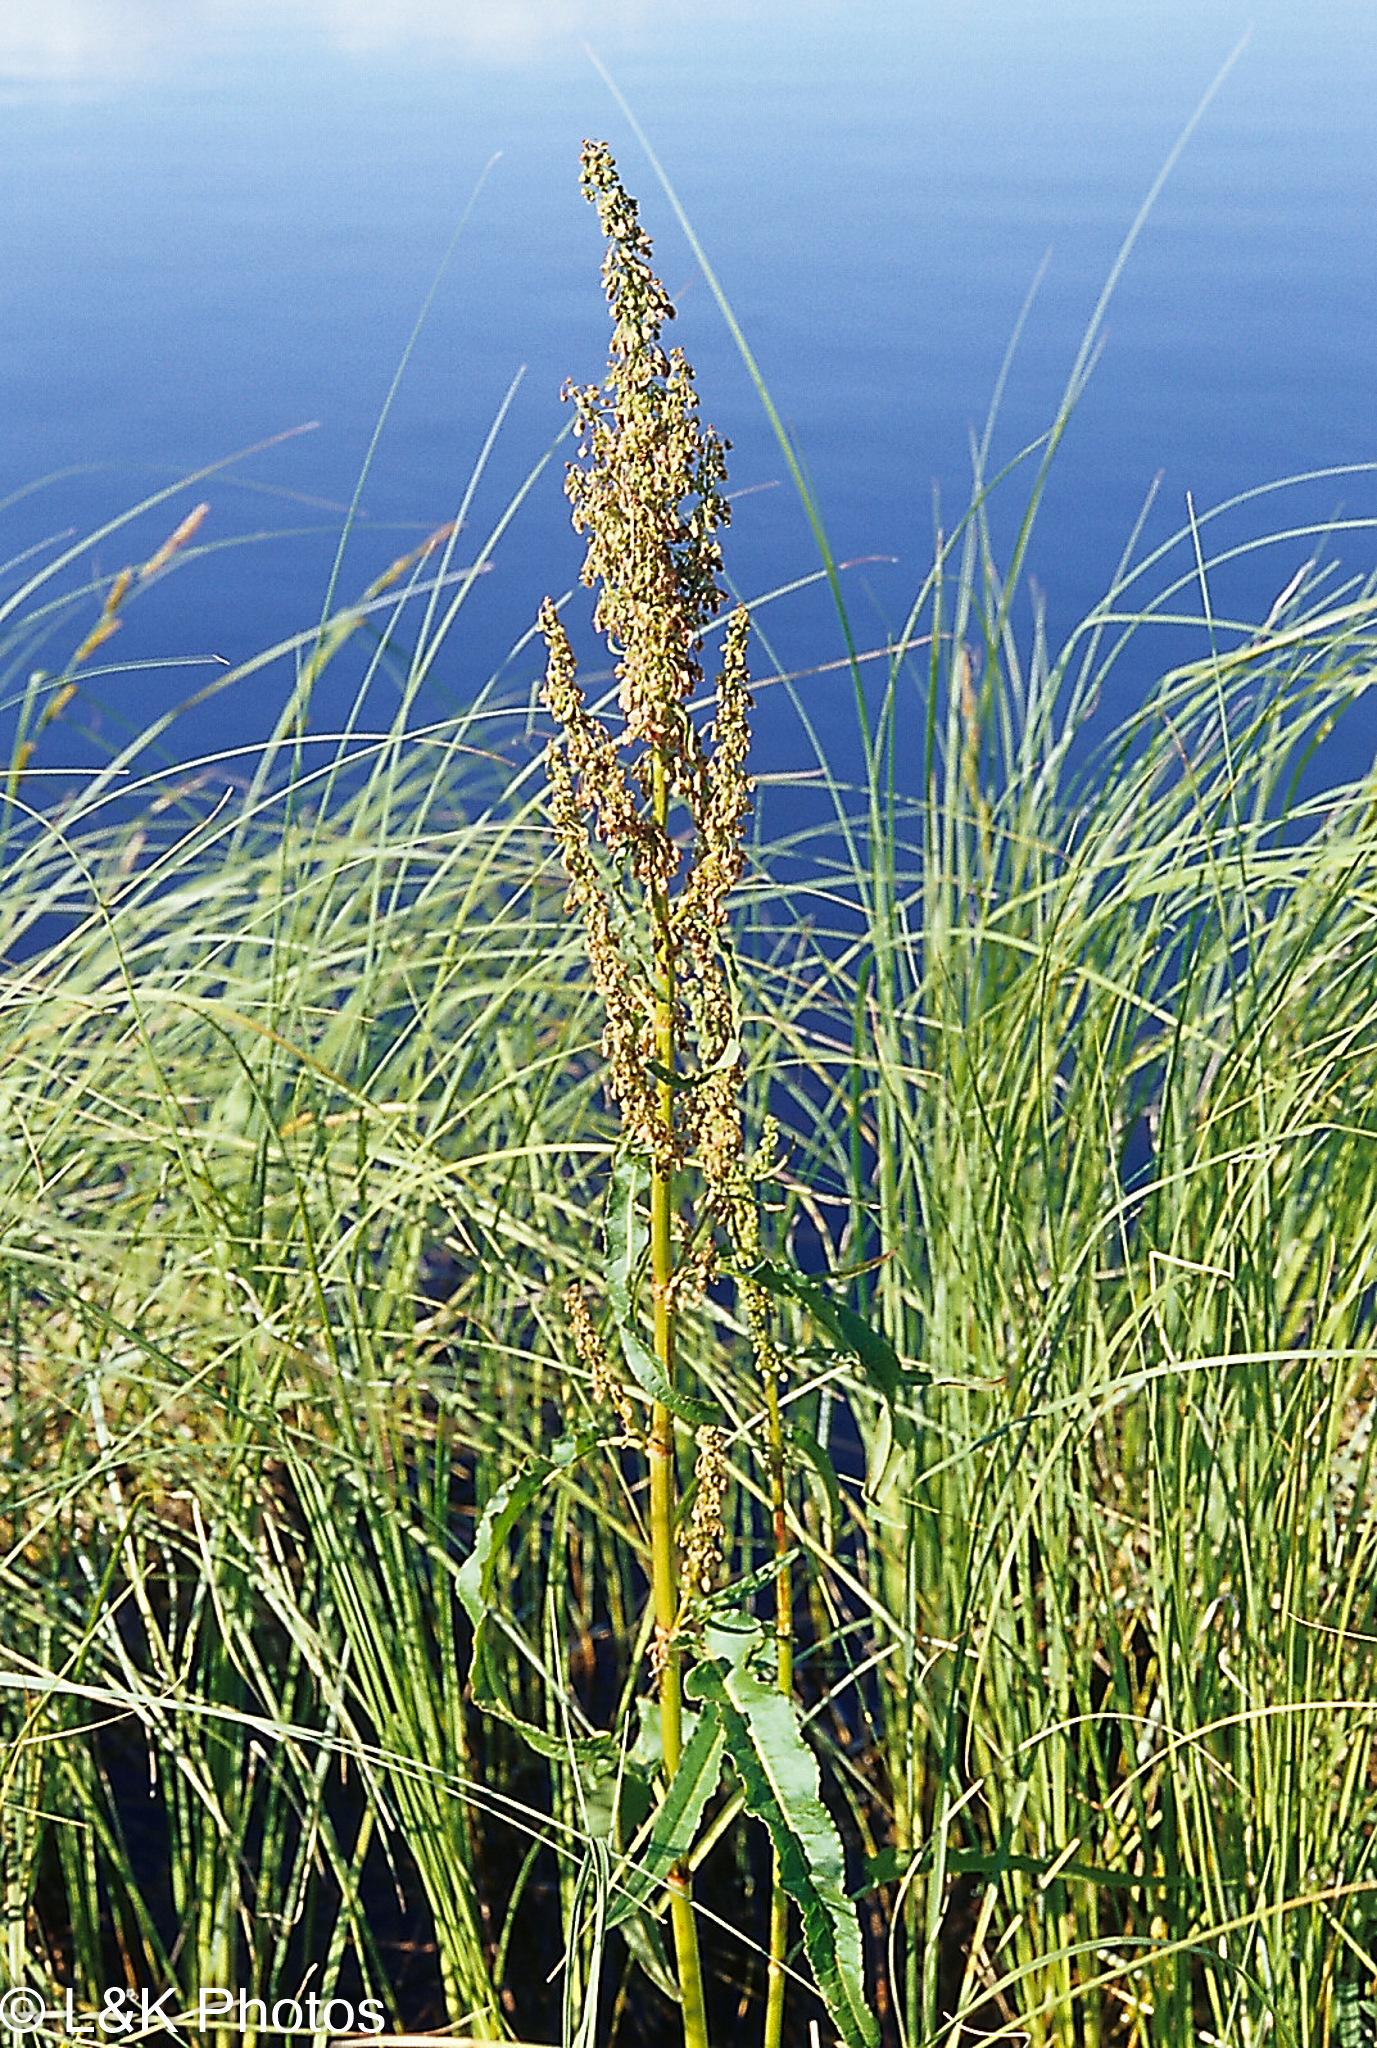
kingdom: Plantae
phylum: Tracheophyta
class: Magnoliopsida
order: Caryophyllales
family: Polygonaceae
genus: Rumex
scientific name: Rumex occidentalis
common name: Western dock
